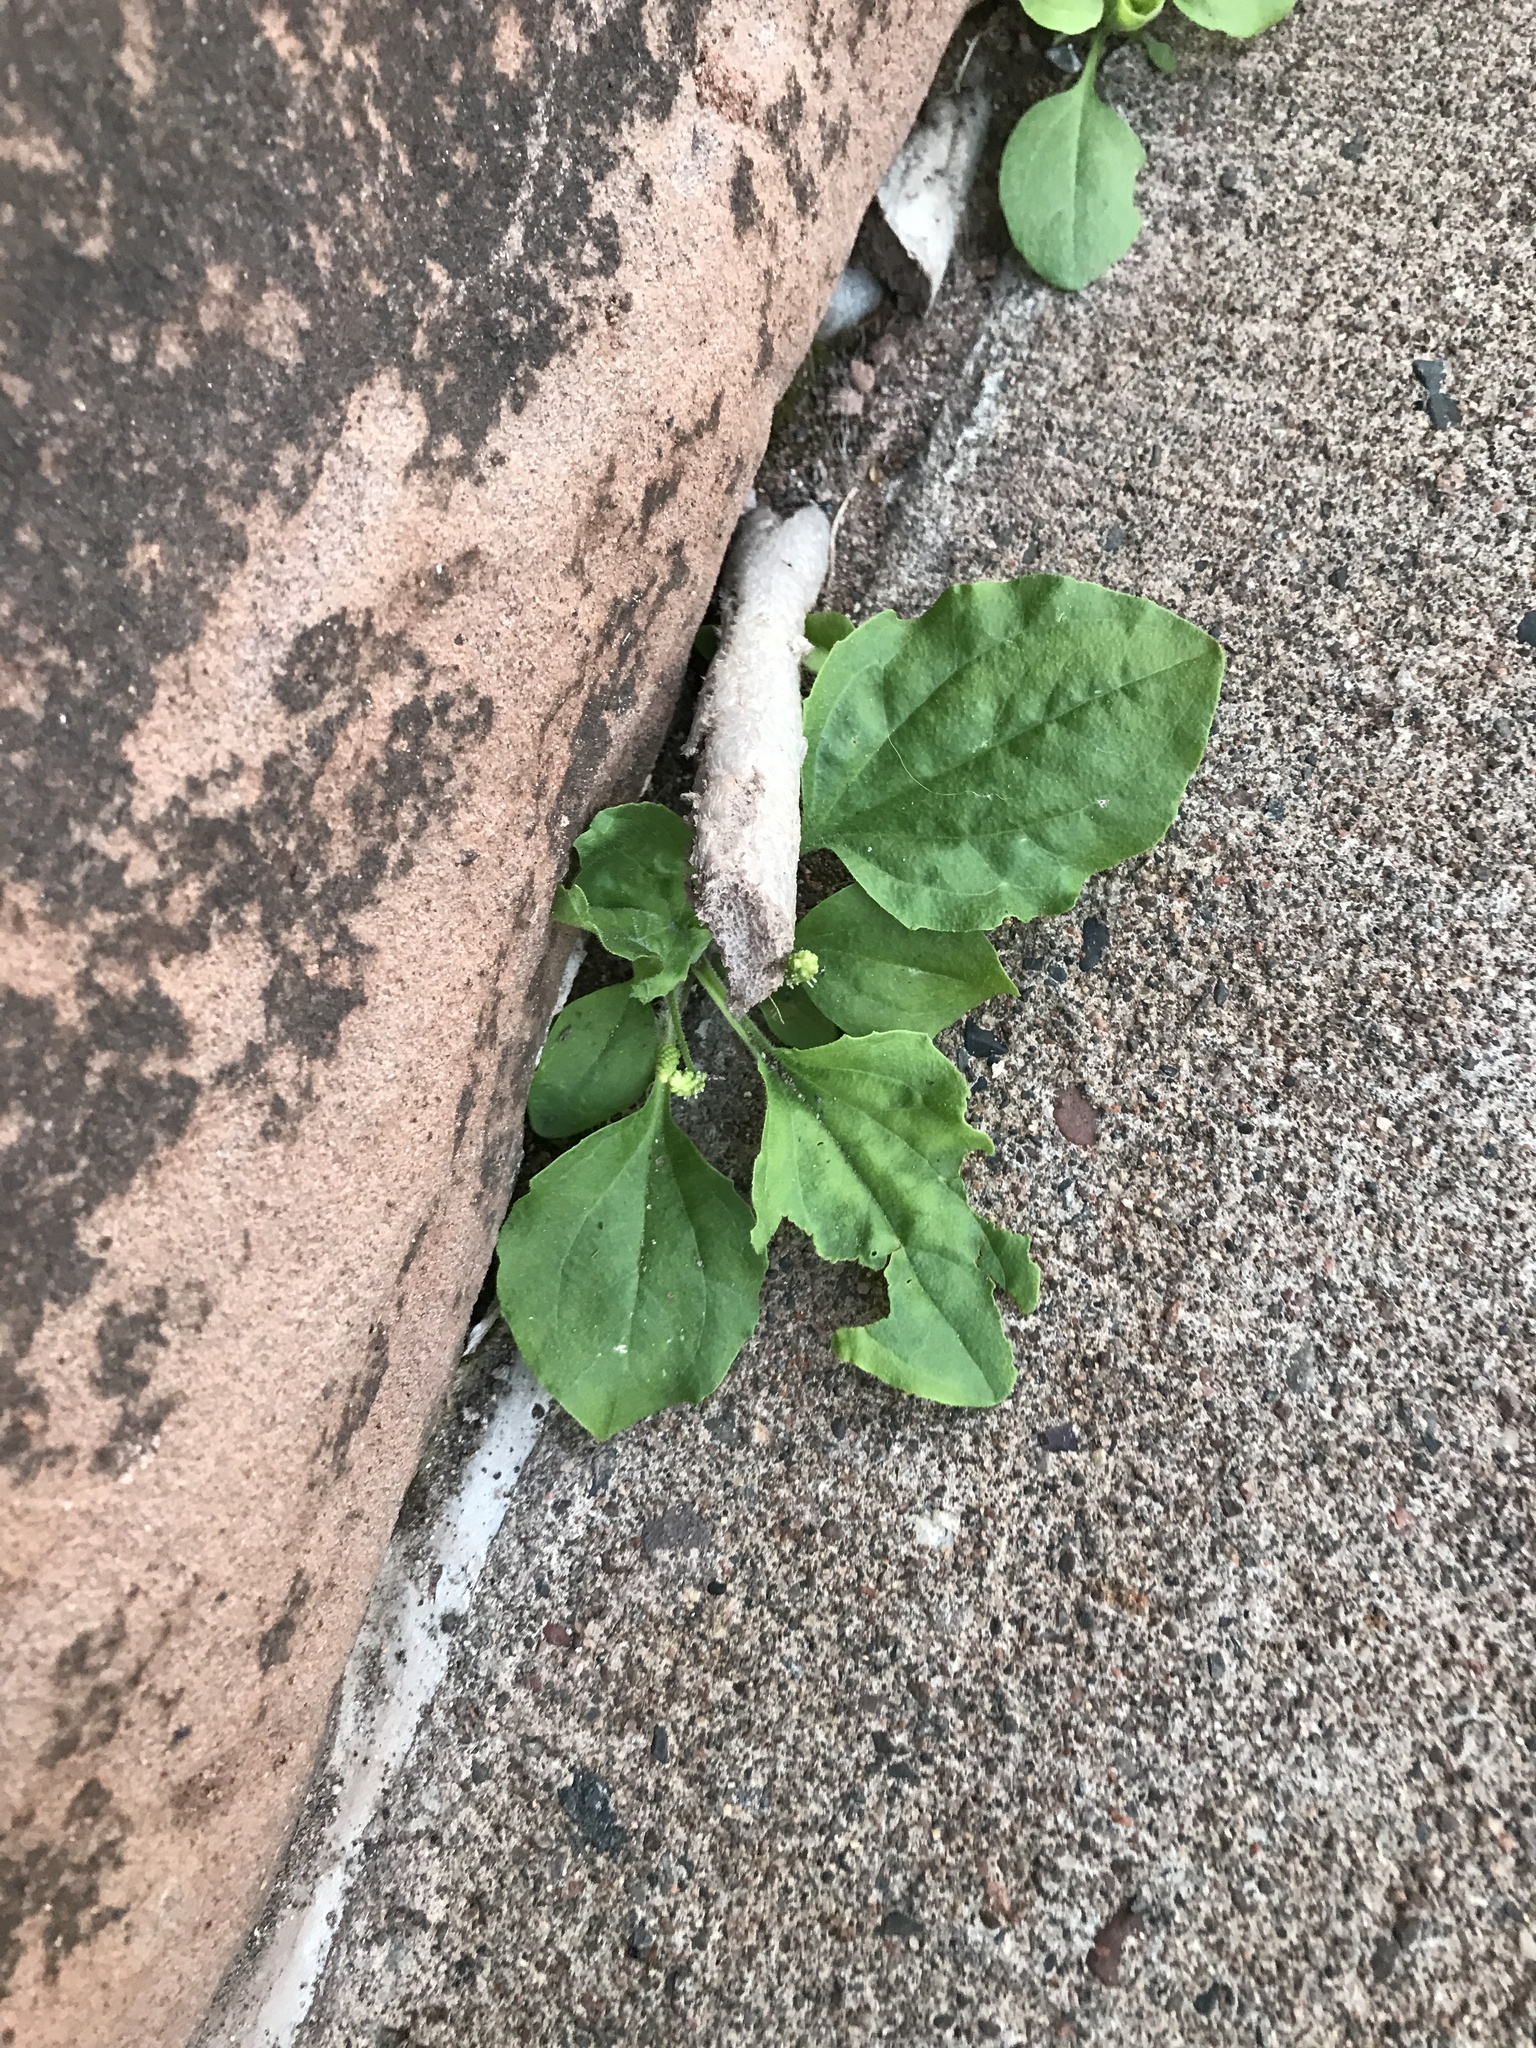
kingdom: Plantae
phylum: Tracheophyta
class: Magnoliopsida
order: Lamiales
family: Plantaginaceae
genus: Plantago
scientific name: Plantago major
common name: Common plantain
